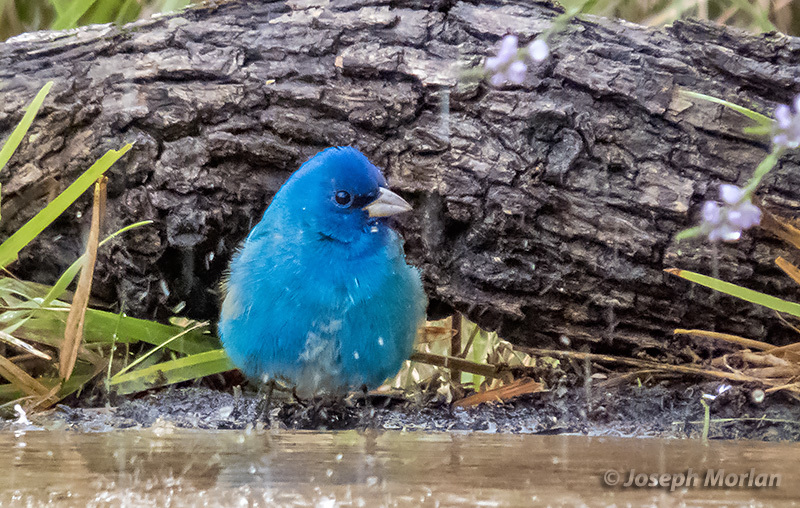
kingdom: Animalia
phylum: Chordata
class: Aves
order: Passeriformes
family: Cardinalidae
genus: Passerina
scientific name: Passerina cyanea
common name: Indigo bunting
